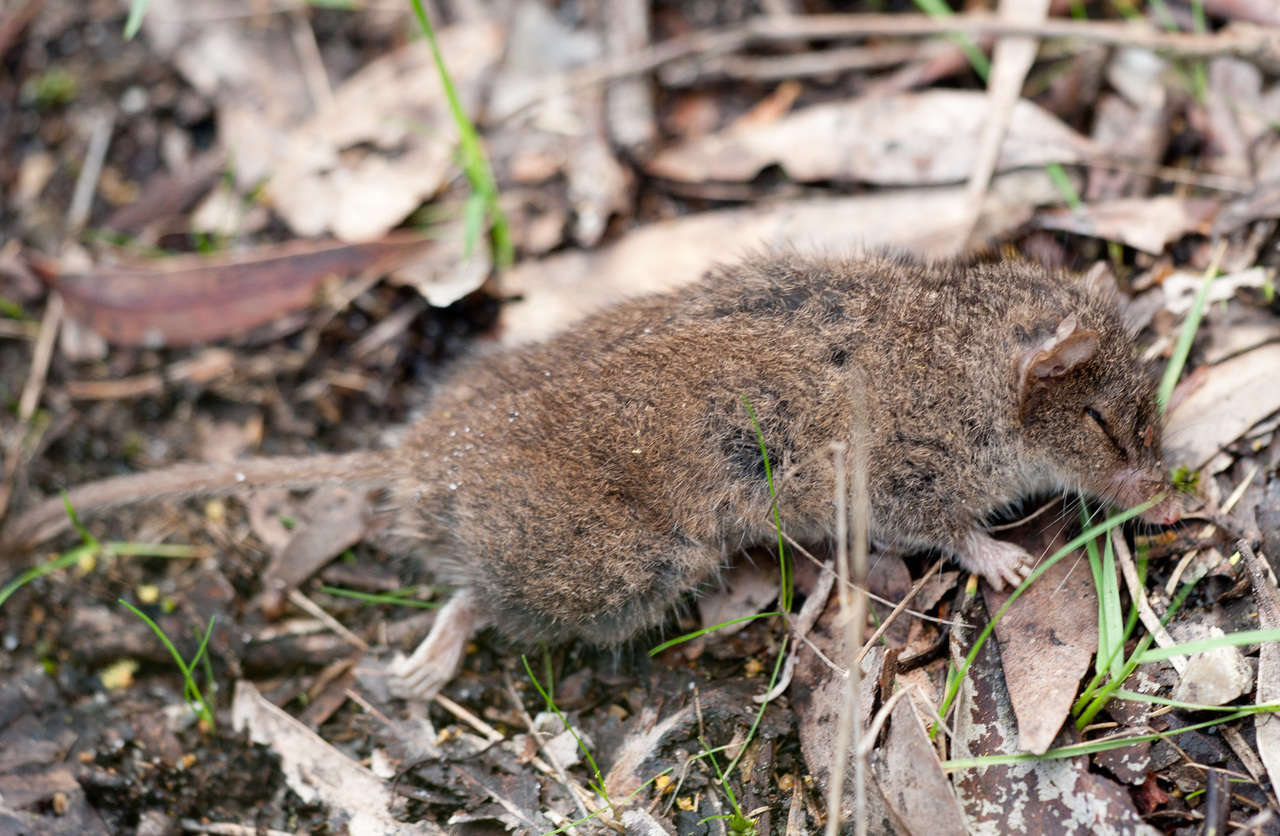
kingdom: Animalia
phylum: Chordata
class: Mammalia
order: Dasyuromorphia
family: Dasyuridae
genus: Antechinus
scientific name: Antechinus agilis
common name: Agile antechinus
